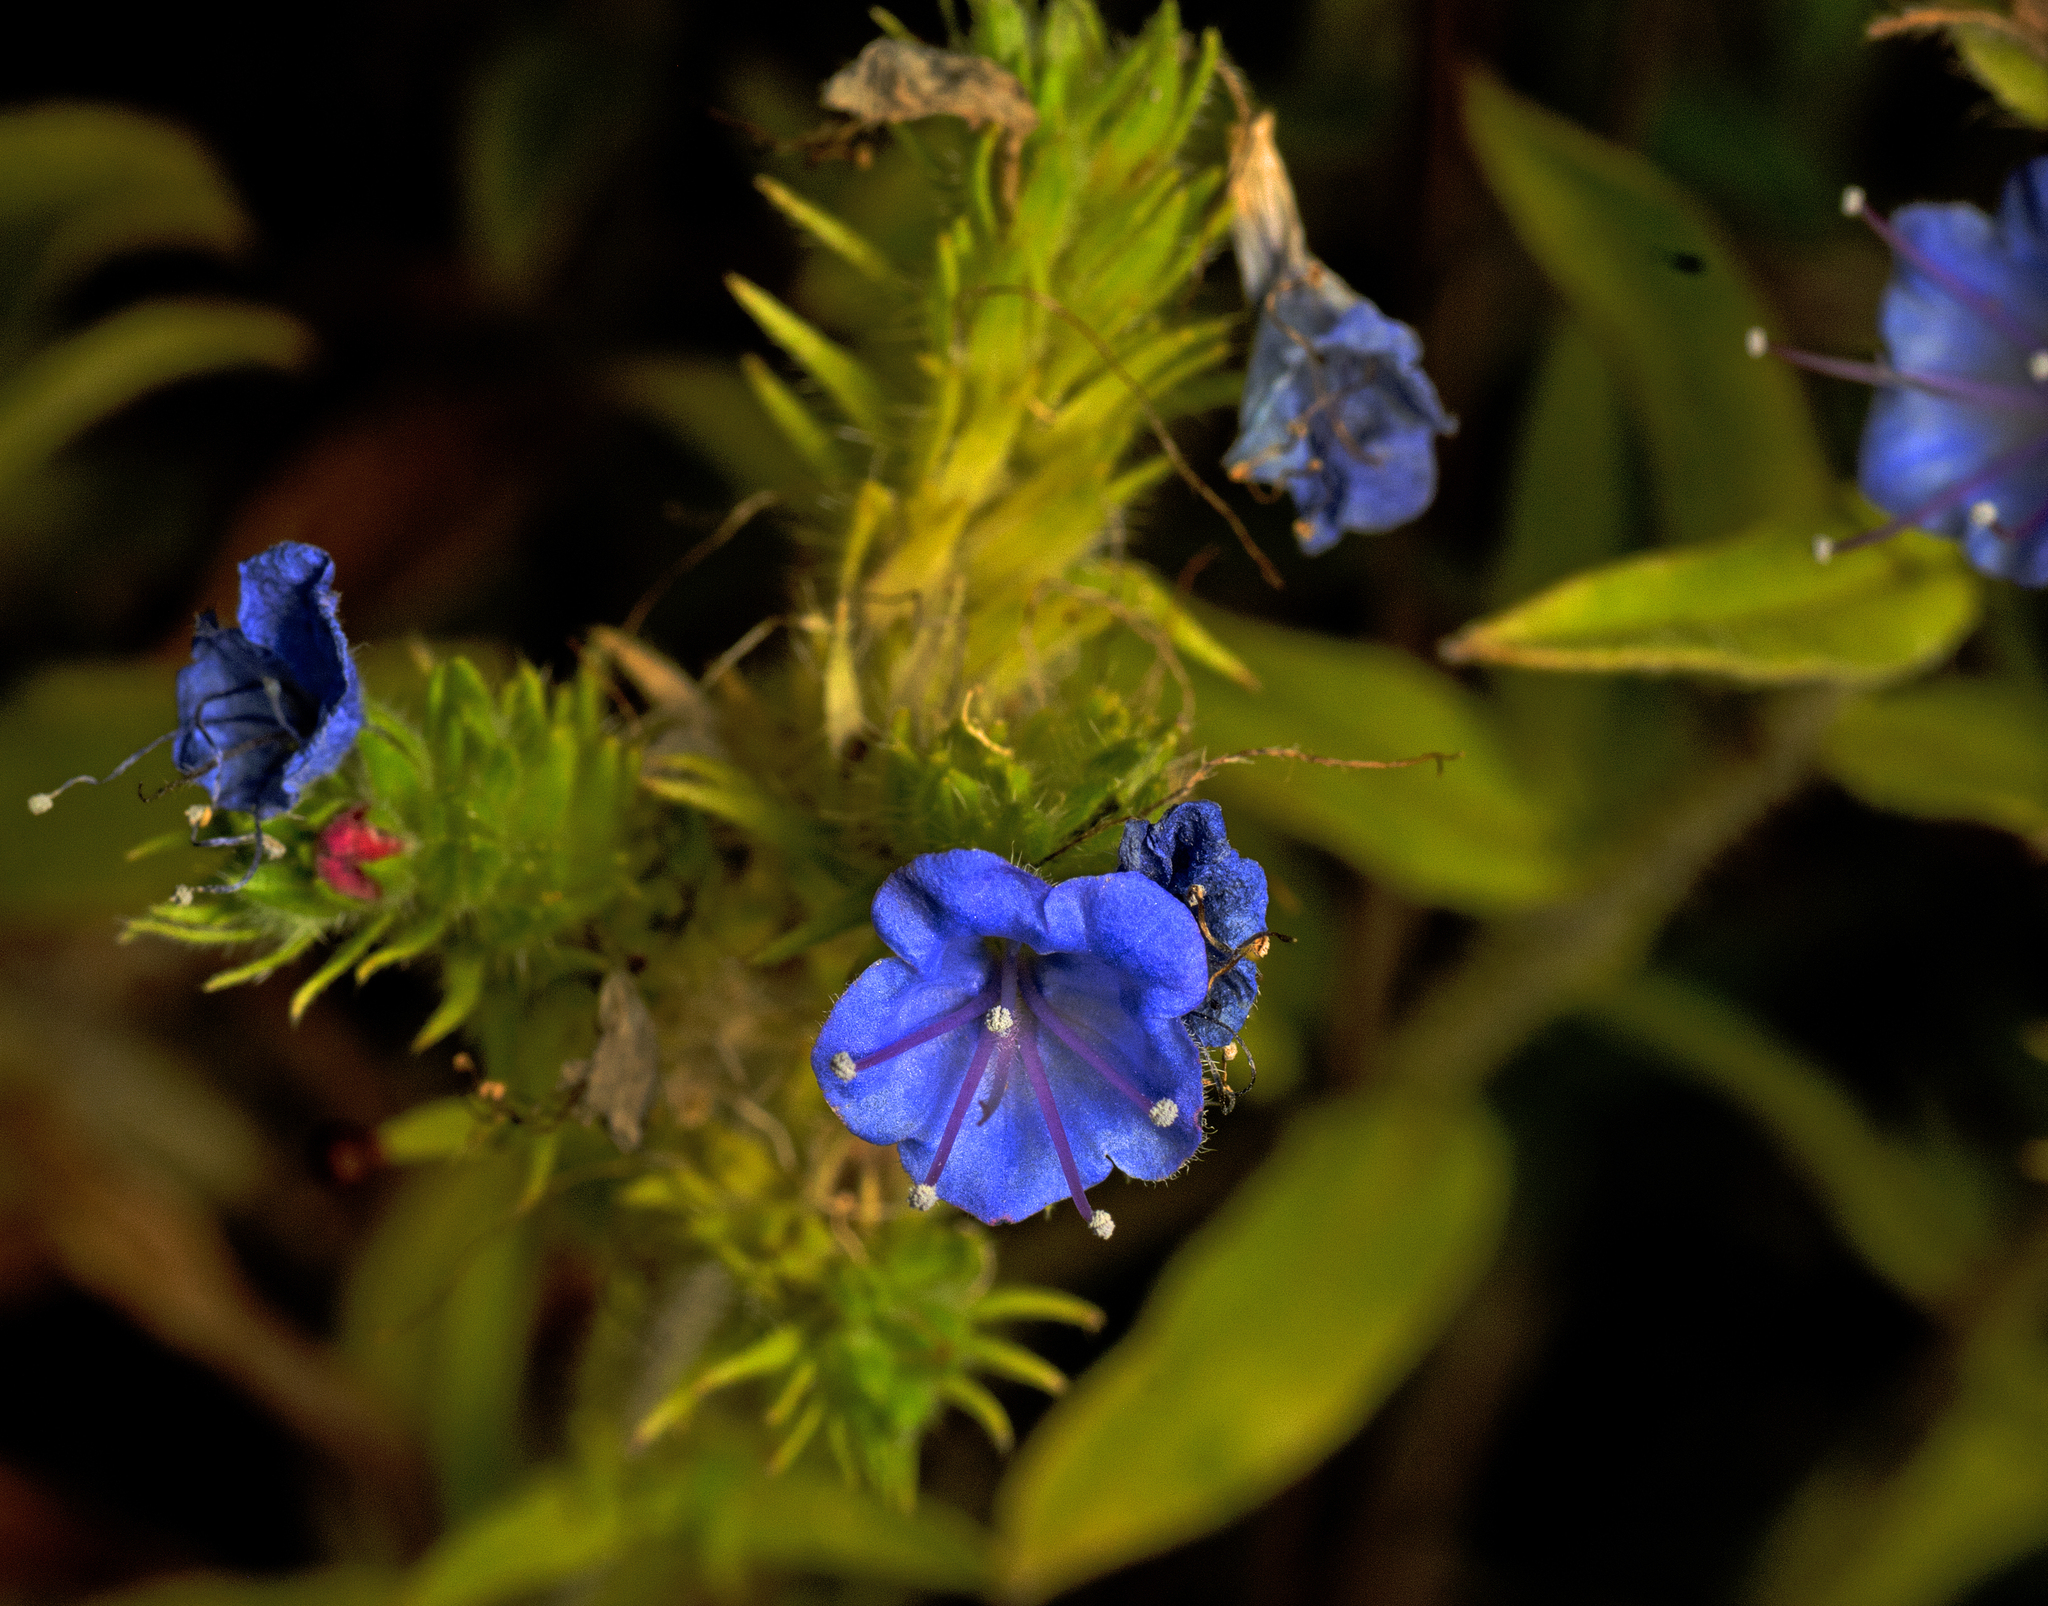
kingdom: Plantae
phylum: Tracheophyta
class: Magnoliopsida
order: Boraginales
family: Boraginaceae
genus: Echium
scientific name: Echium vulgare
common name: Common viper's bugloss
